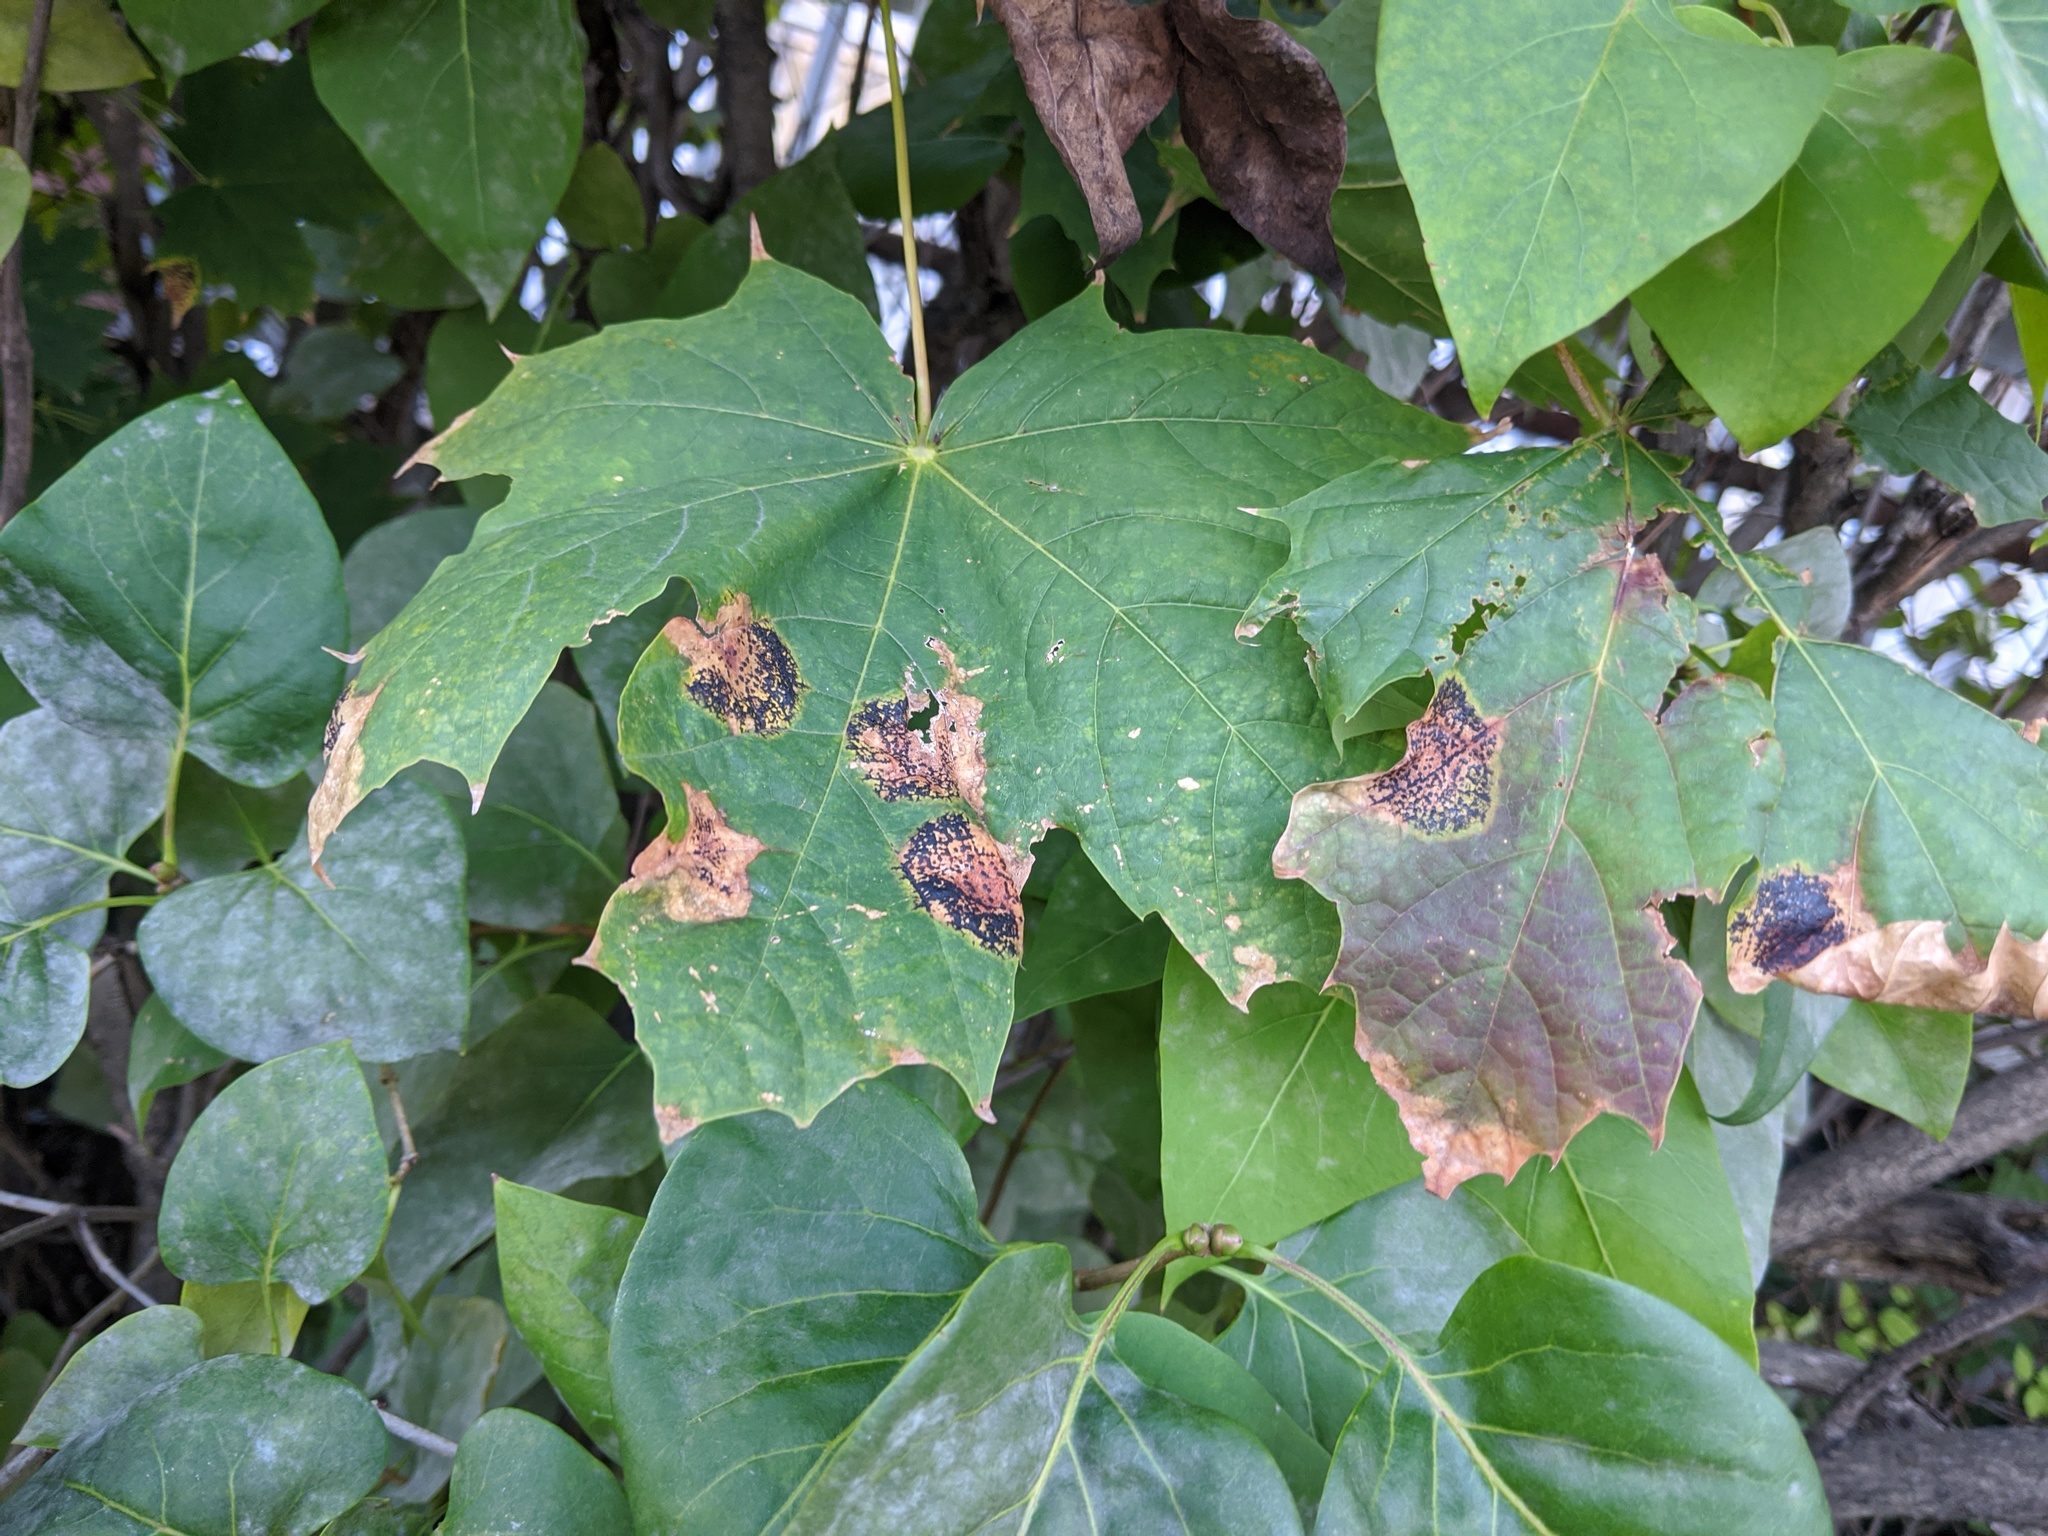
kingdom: Fungi
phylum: Ascomycota
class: Leotiomycetes
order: Rhytismatales
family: Rhytismataceae
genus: Rhytisma
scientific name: Rhytisma acerinum
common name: European tar spot
